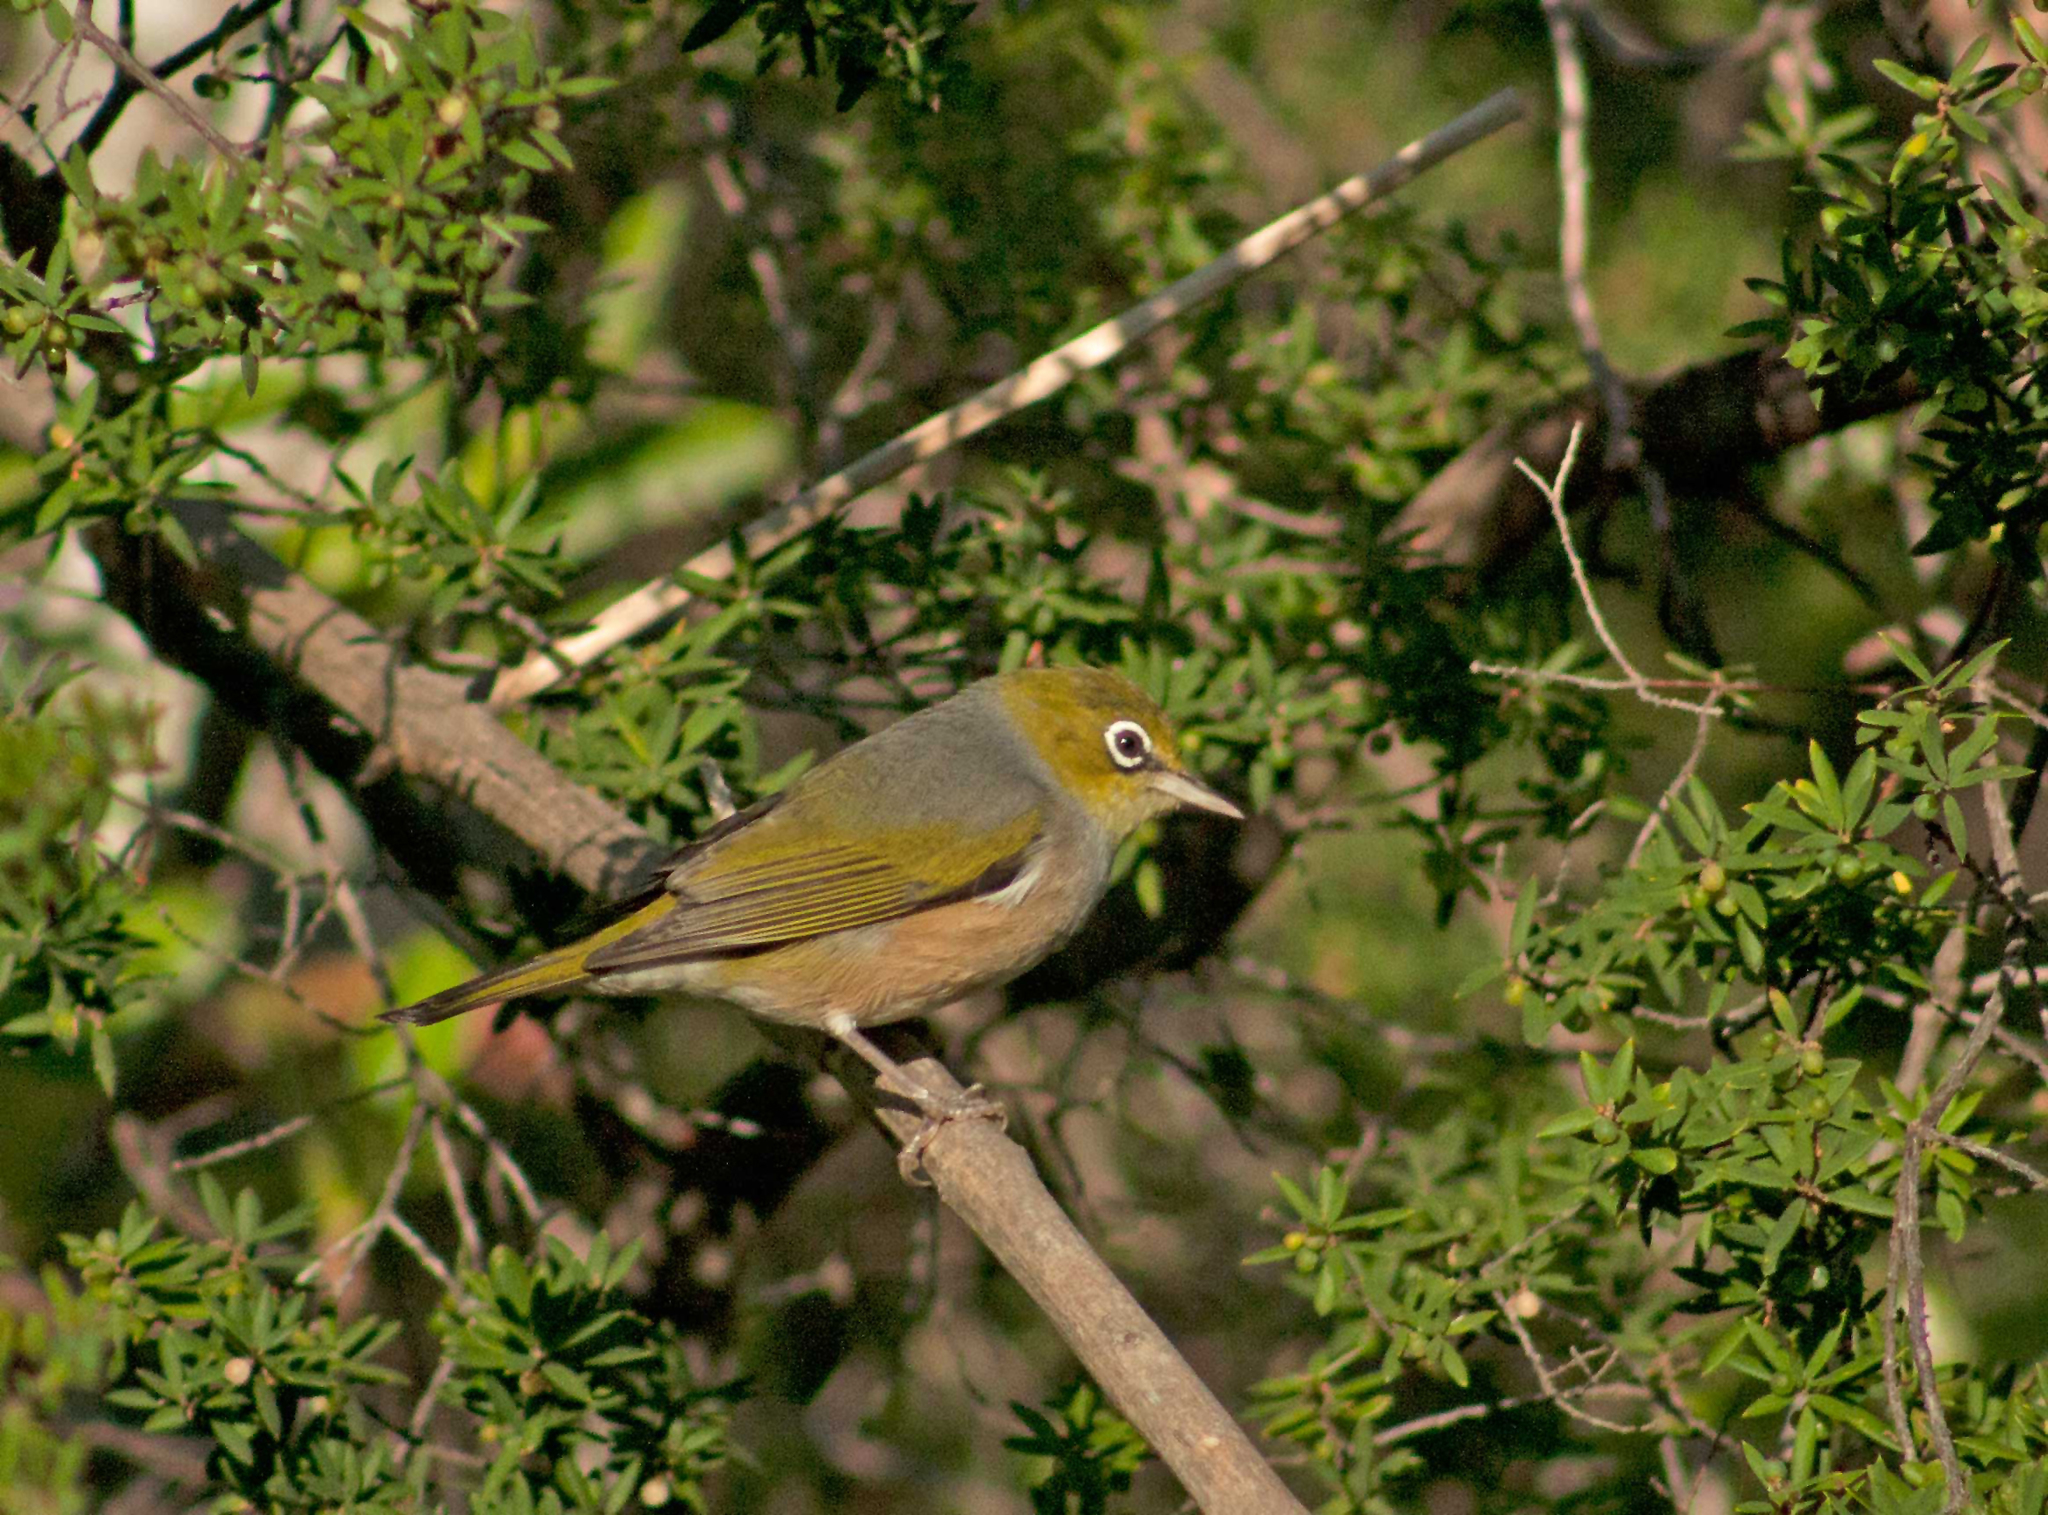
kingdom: Animalia
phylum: Chordata
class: Aves
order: Passeriformes
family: Zosteropidae
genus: Zosterops
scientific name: Zosterops lateralis
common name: Silvereye
